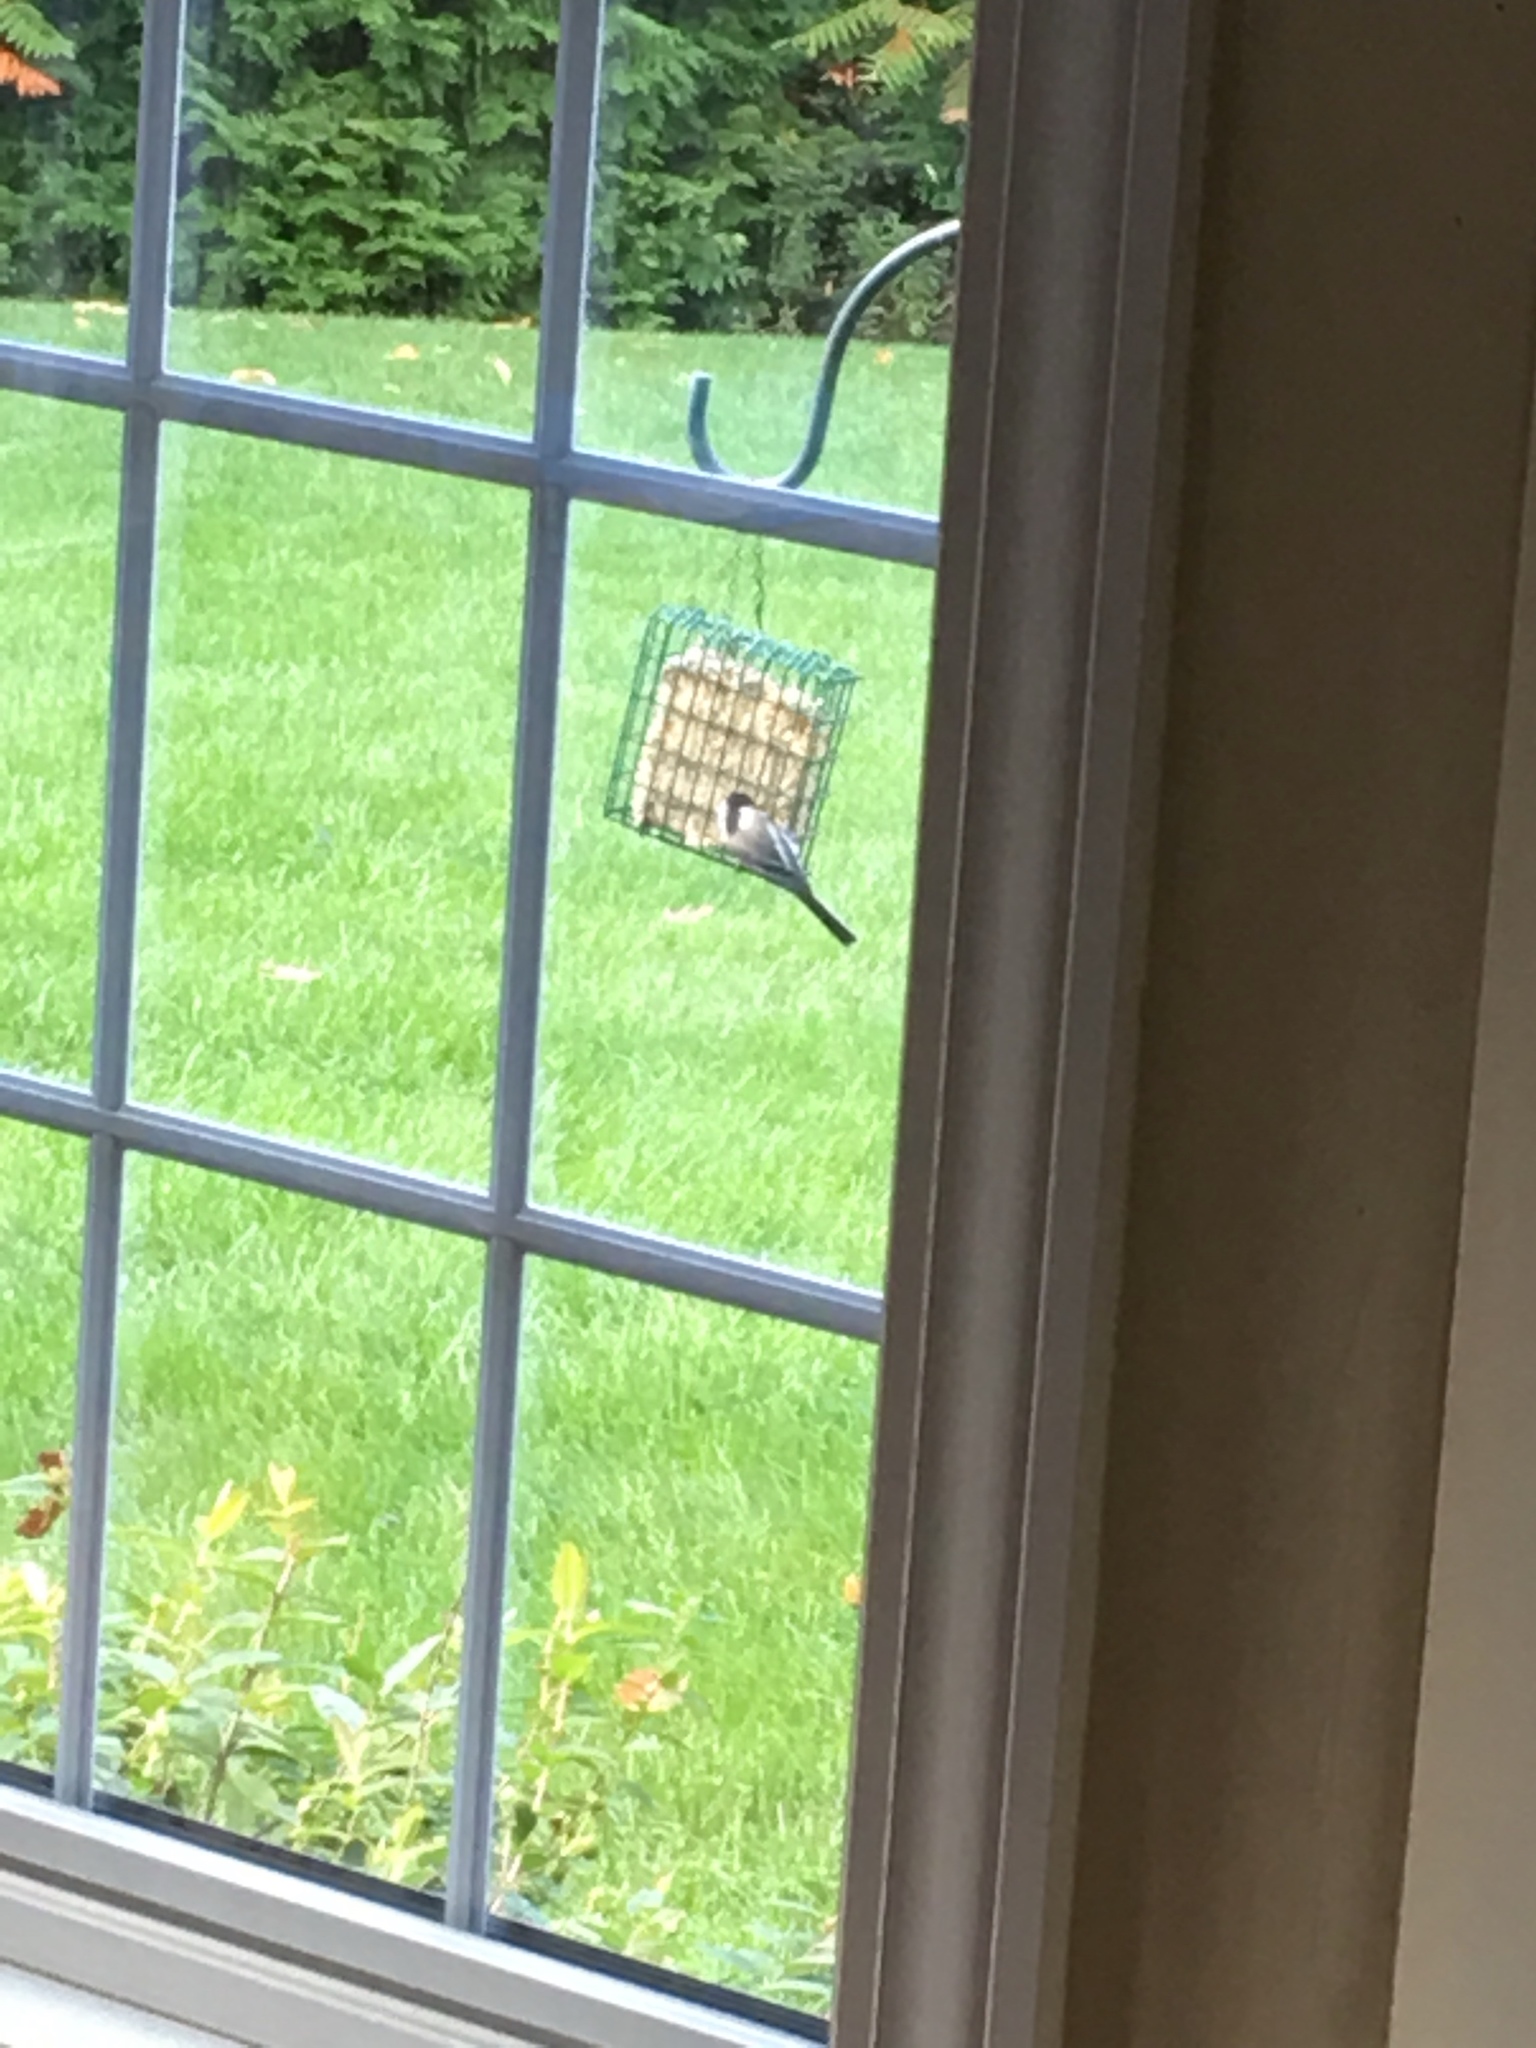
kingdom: Animalia
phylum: Chordata
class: Aves
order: Passeriformes
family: Paridae
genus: Poecile
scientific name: Poecile atricapillus
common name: Black-capped chickadee
